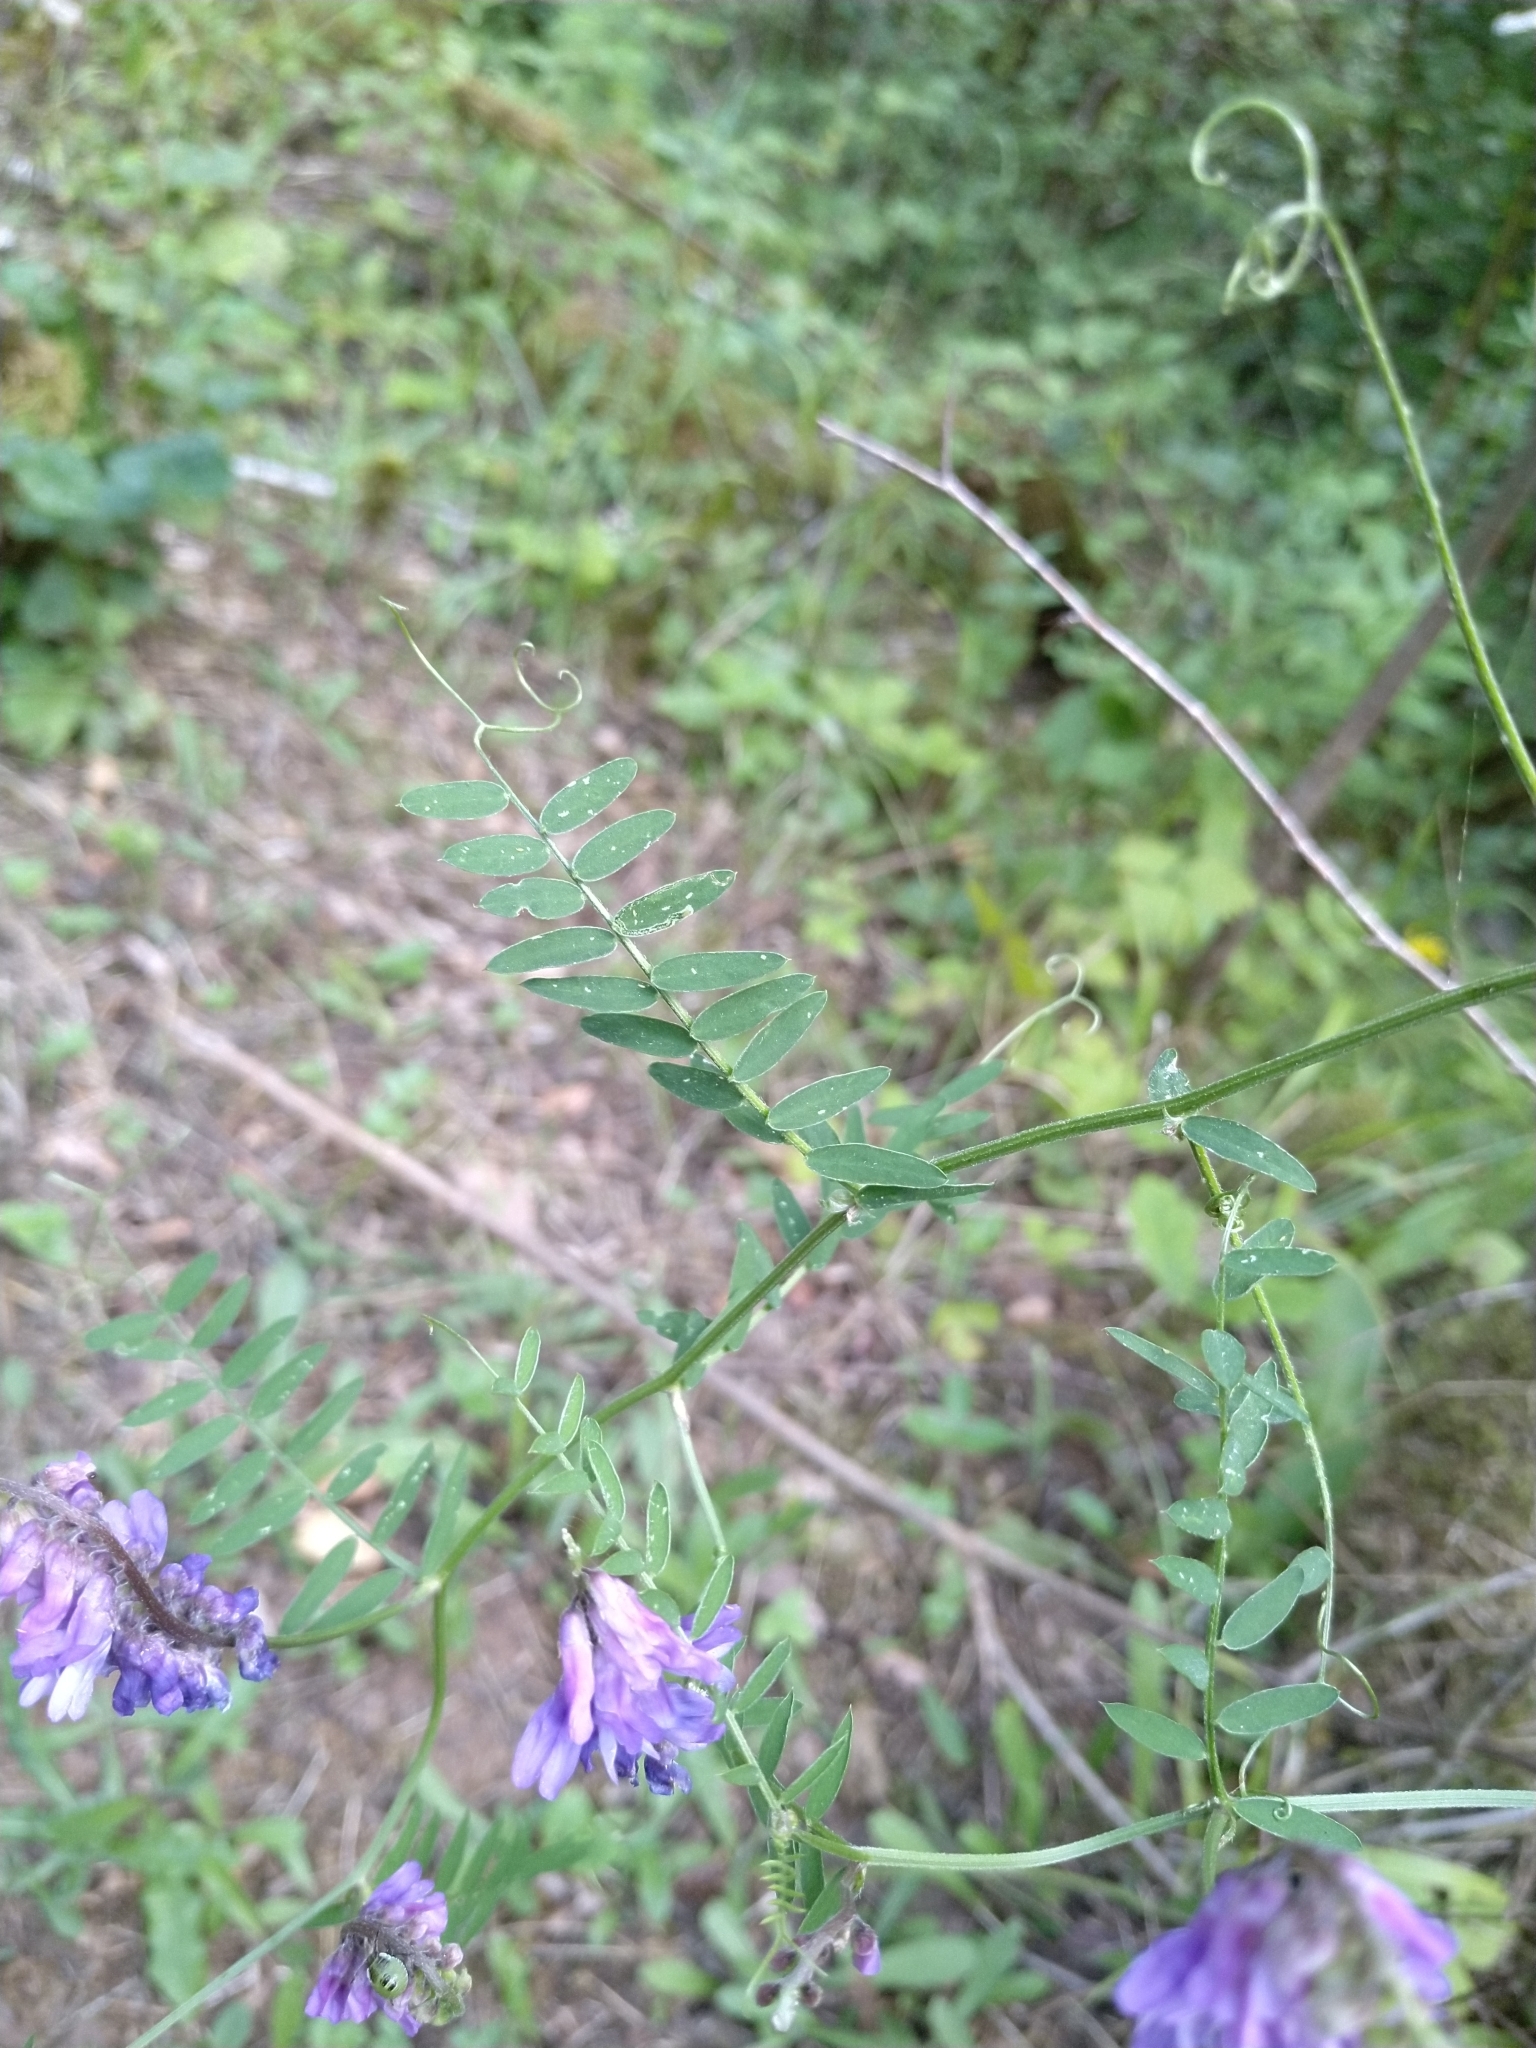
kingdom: Plantae
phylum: Tracheophyta
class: Magnoliopsida
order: Fabales
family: Fabaceae
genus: Vicia
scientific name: Vicia cracca
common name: Bird vetch
